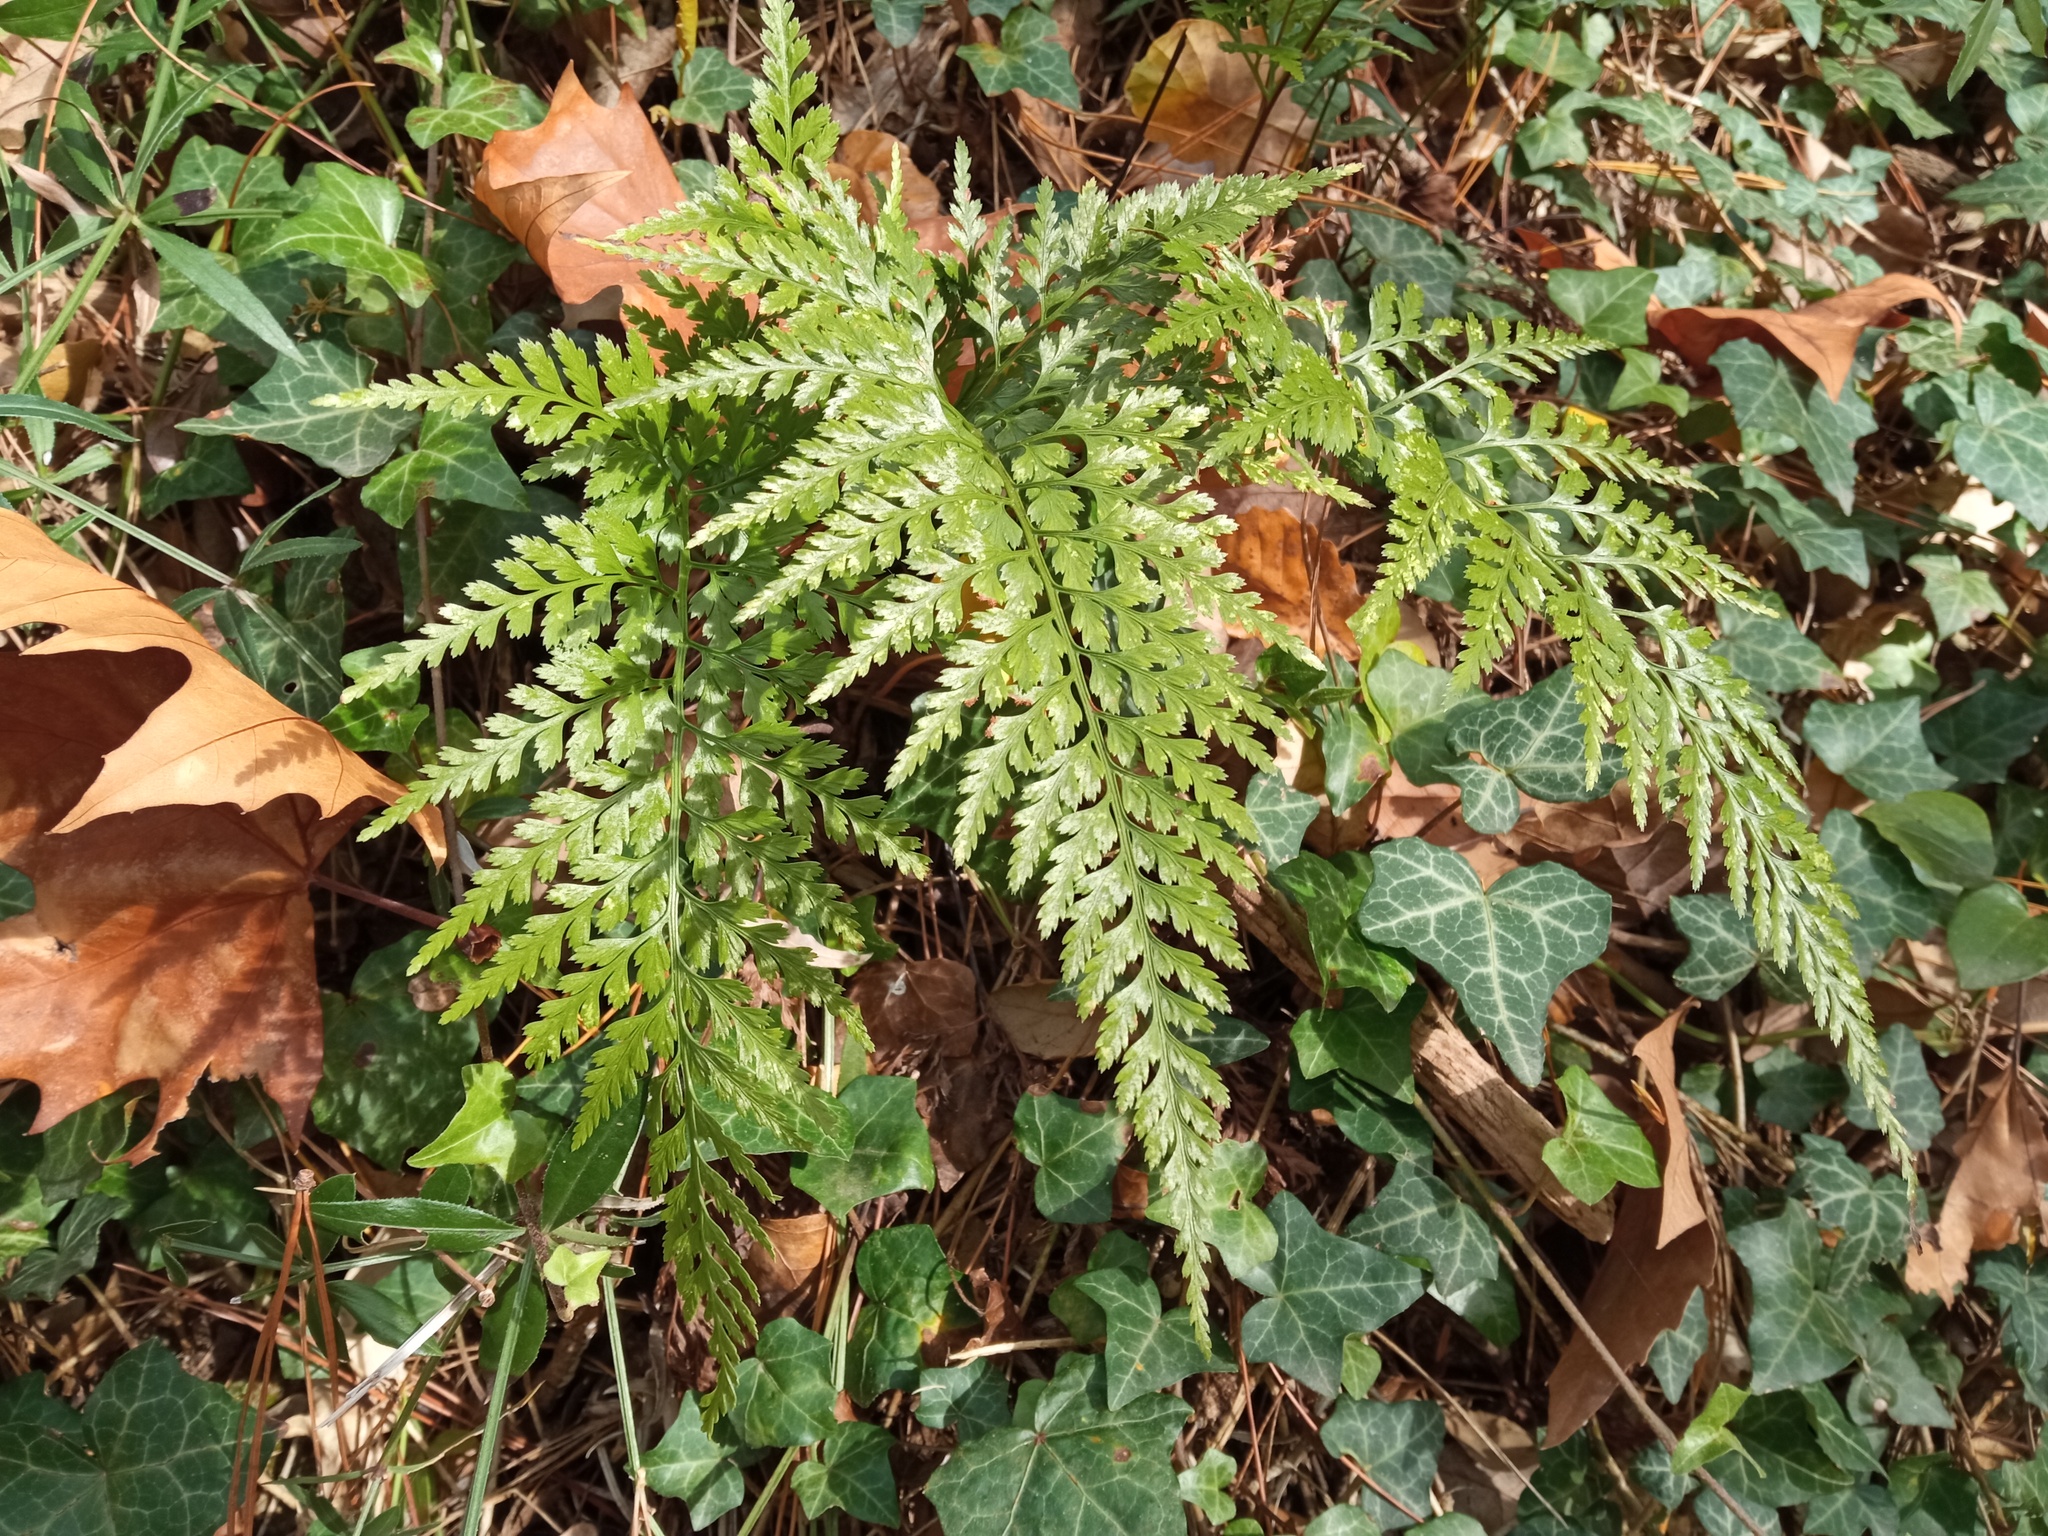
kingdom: Plantae
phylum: Tracheophyta
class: Polypodiopsida
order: Polypodiales
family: Aspleniaceae
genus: Asplenium
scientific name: Asplenium onopteris
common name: Irish spleenwort
